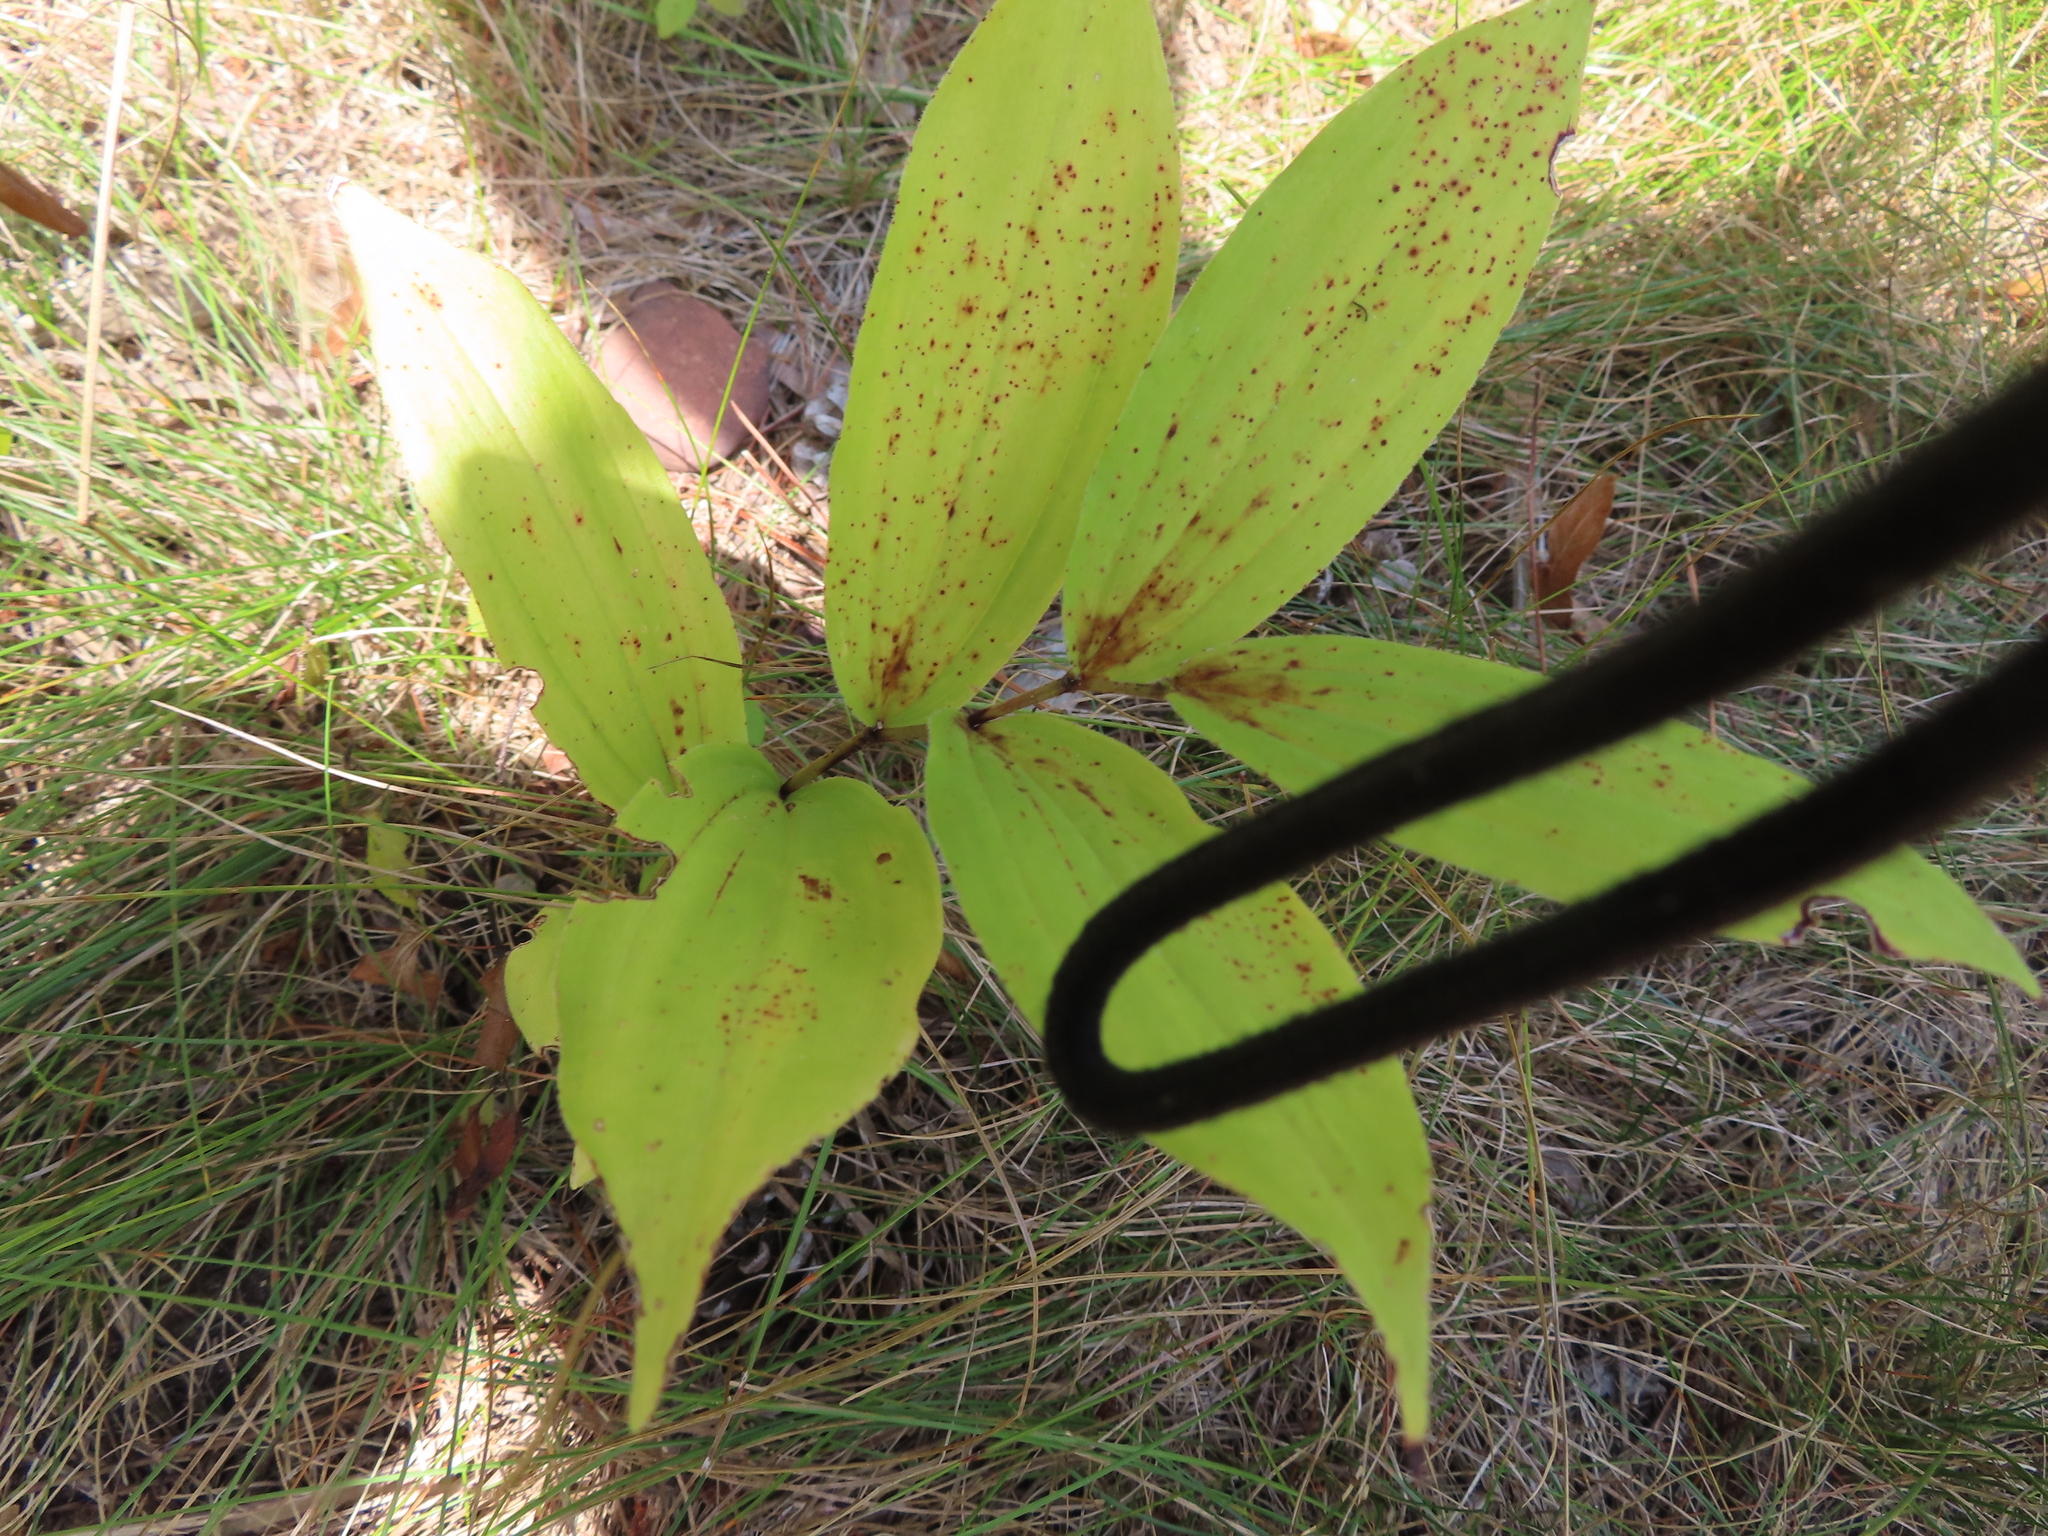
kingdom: Plantae
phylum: Tracheophyta
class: Liliopsida
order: Asparagales
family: Asparagaceae
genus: Maianthemum
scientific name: Maianthemum racemosum
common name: False spikenard
